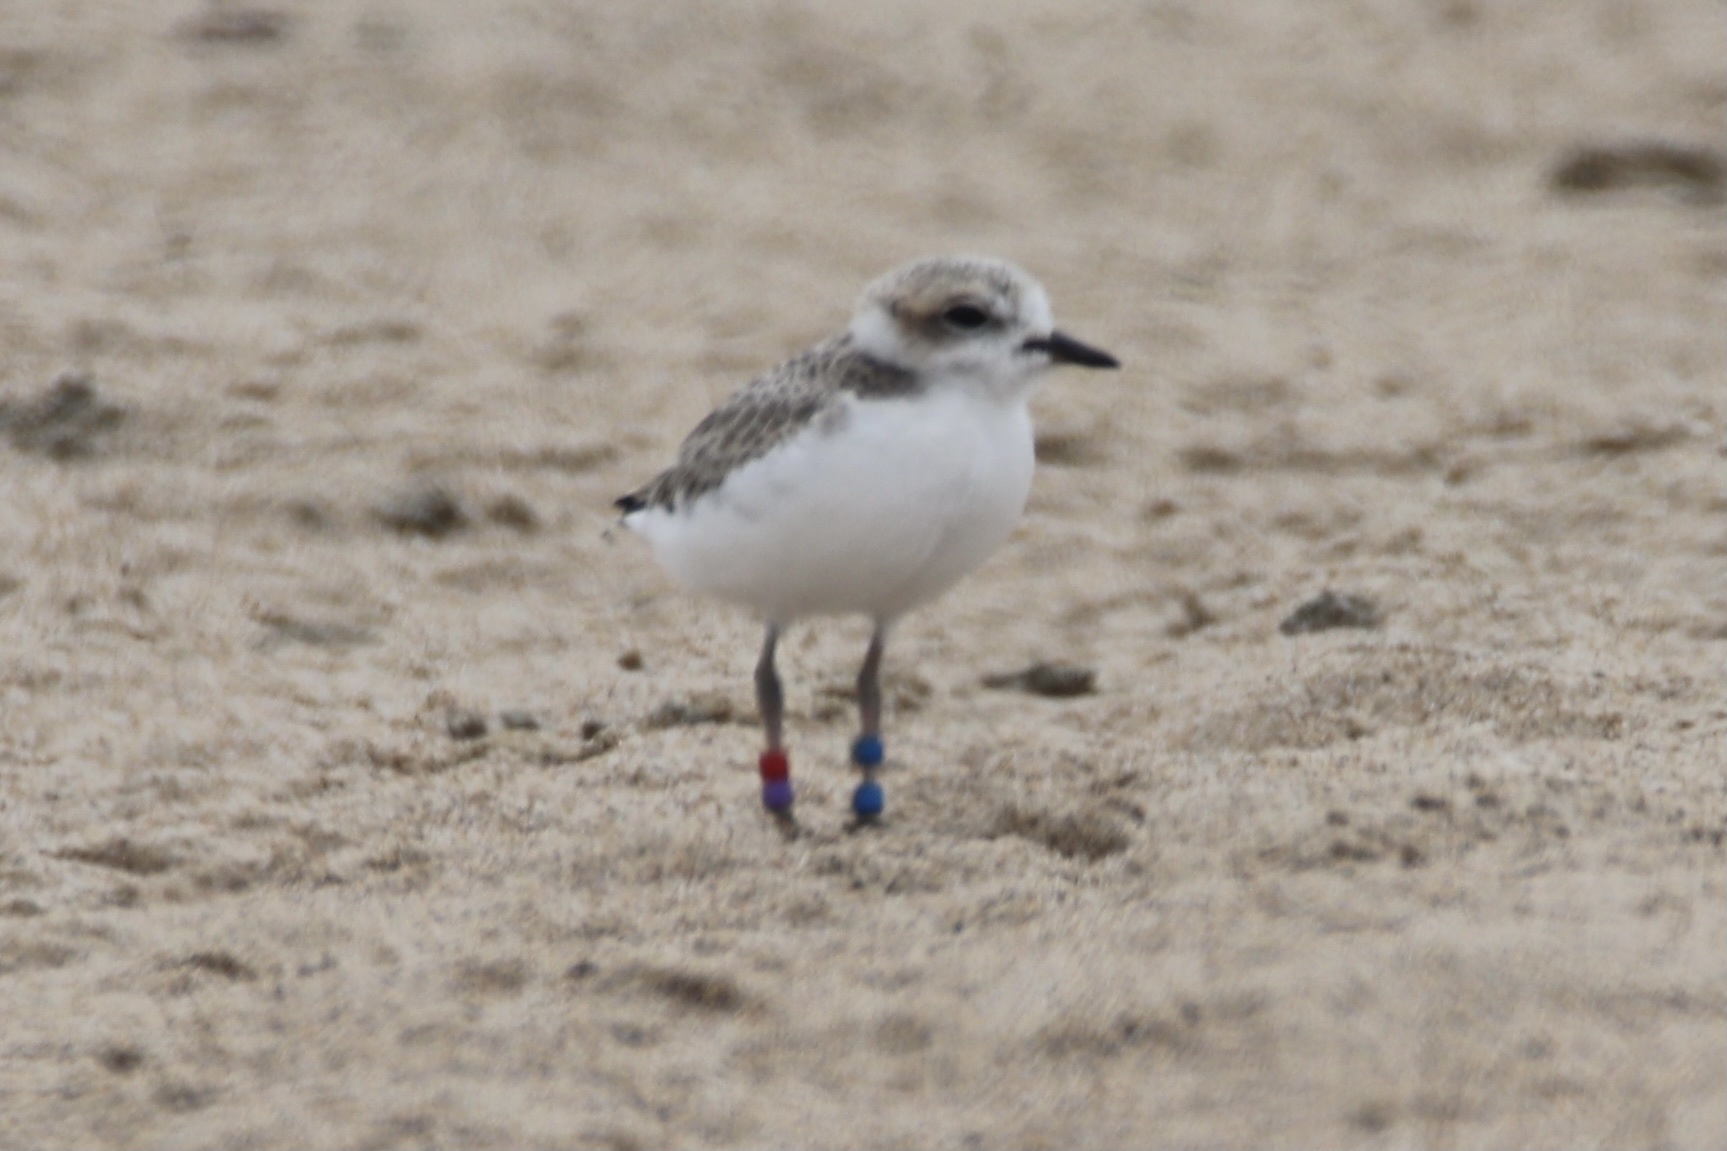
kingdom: Animalia
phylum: Chordata
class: Aves
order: Charadriiformes
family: Charadriidae
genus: Anarhynchus
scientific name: Anarhynchus
